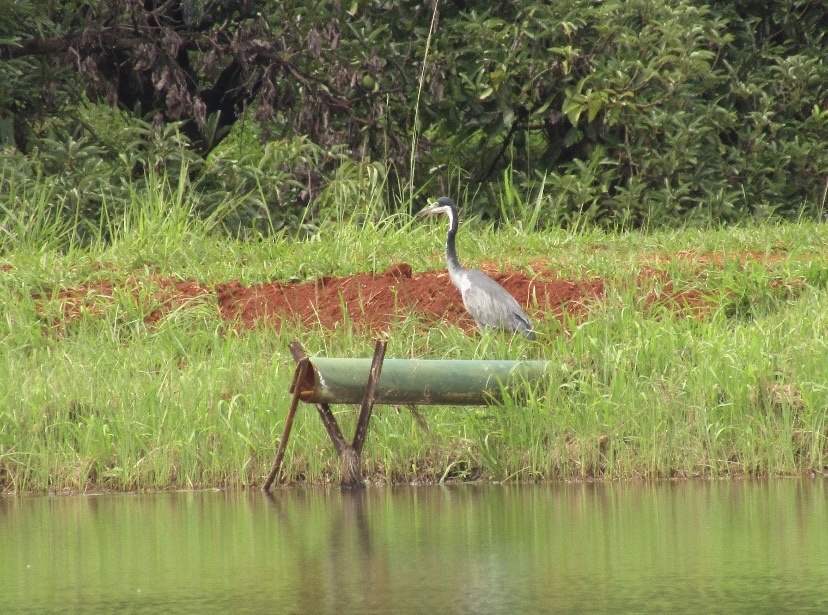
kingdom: Animalia
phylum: Chordata
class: Aves
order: Pelecaniformes
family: Ardeidae
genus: Ardea
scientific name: Ardea melanocephala
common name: Black-headed heron
